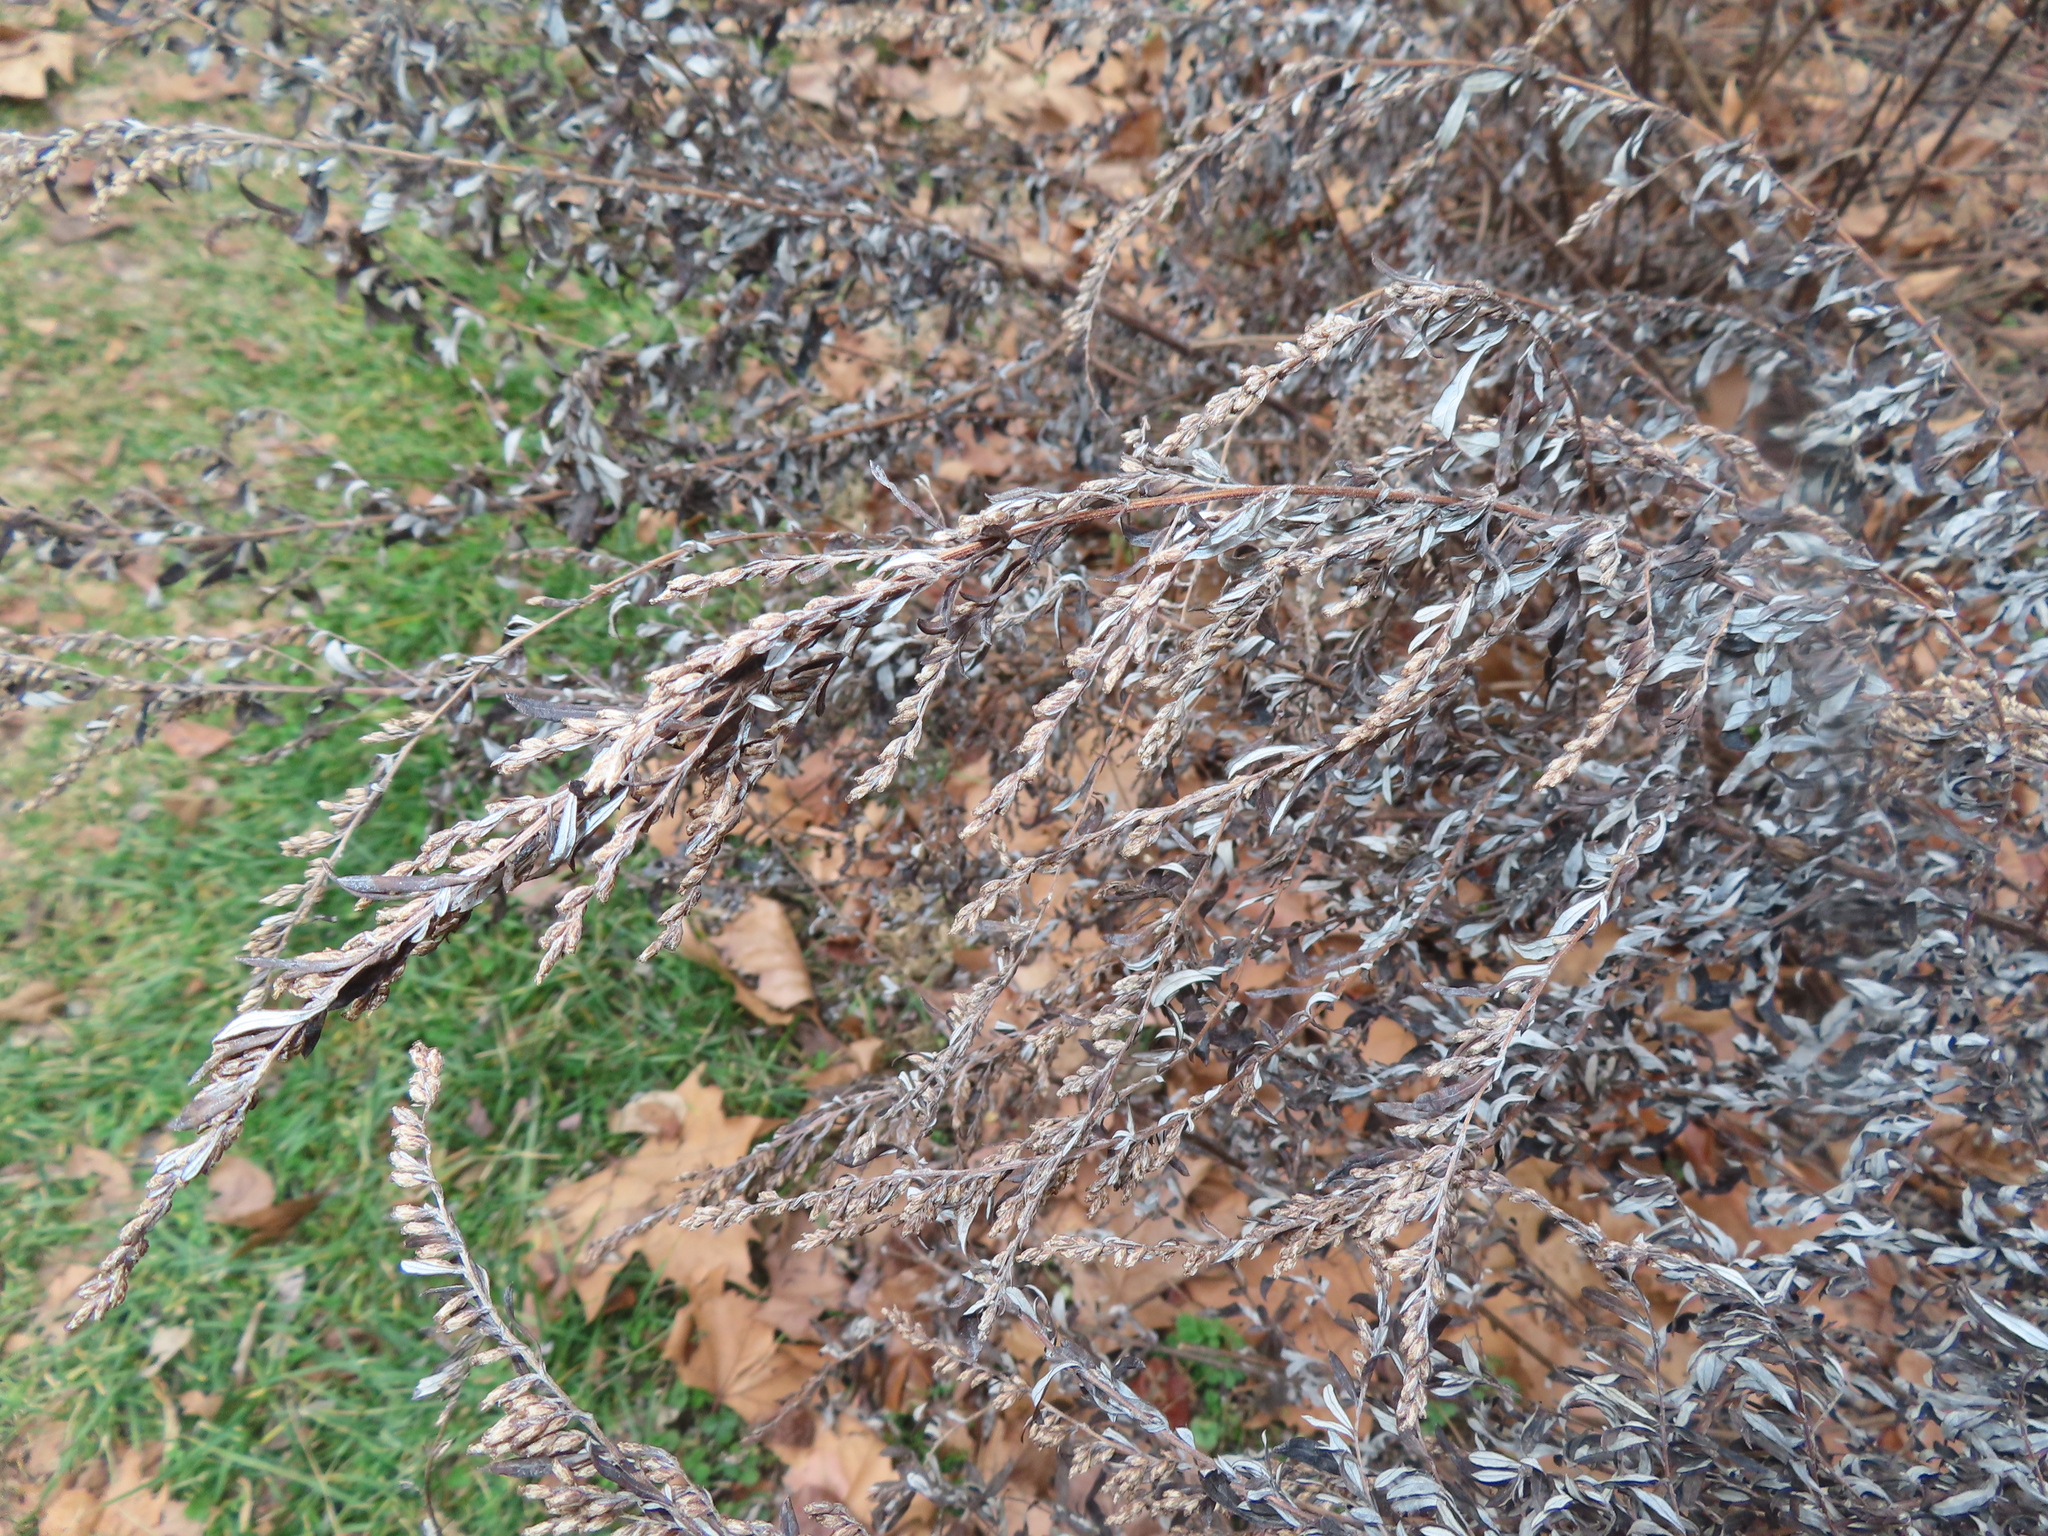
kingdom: Plantae
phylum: Tracheophyta
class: Magnoliopsida
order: Asterales
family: Asteraceae
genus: Artemisia
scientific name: Artemisia vulgaris
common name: Mugwort
